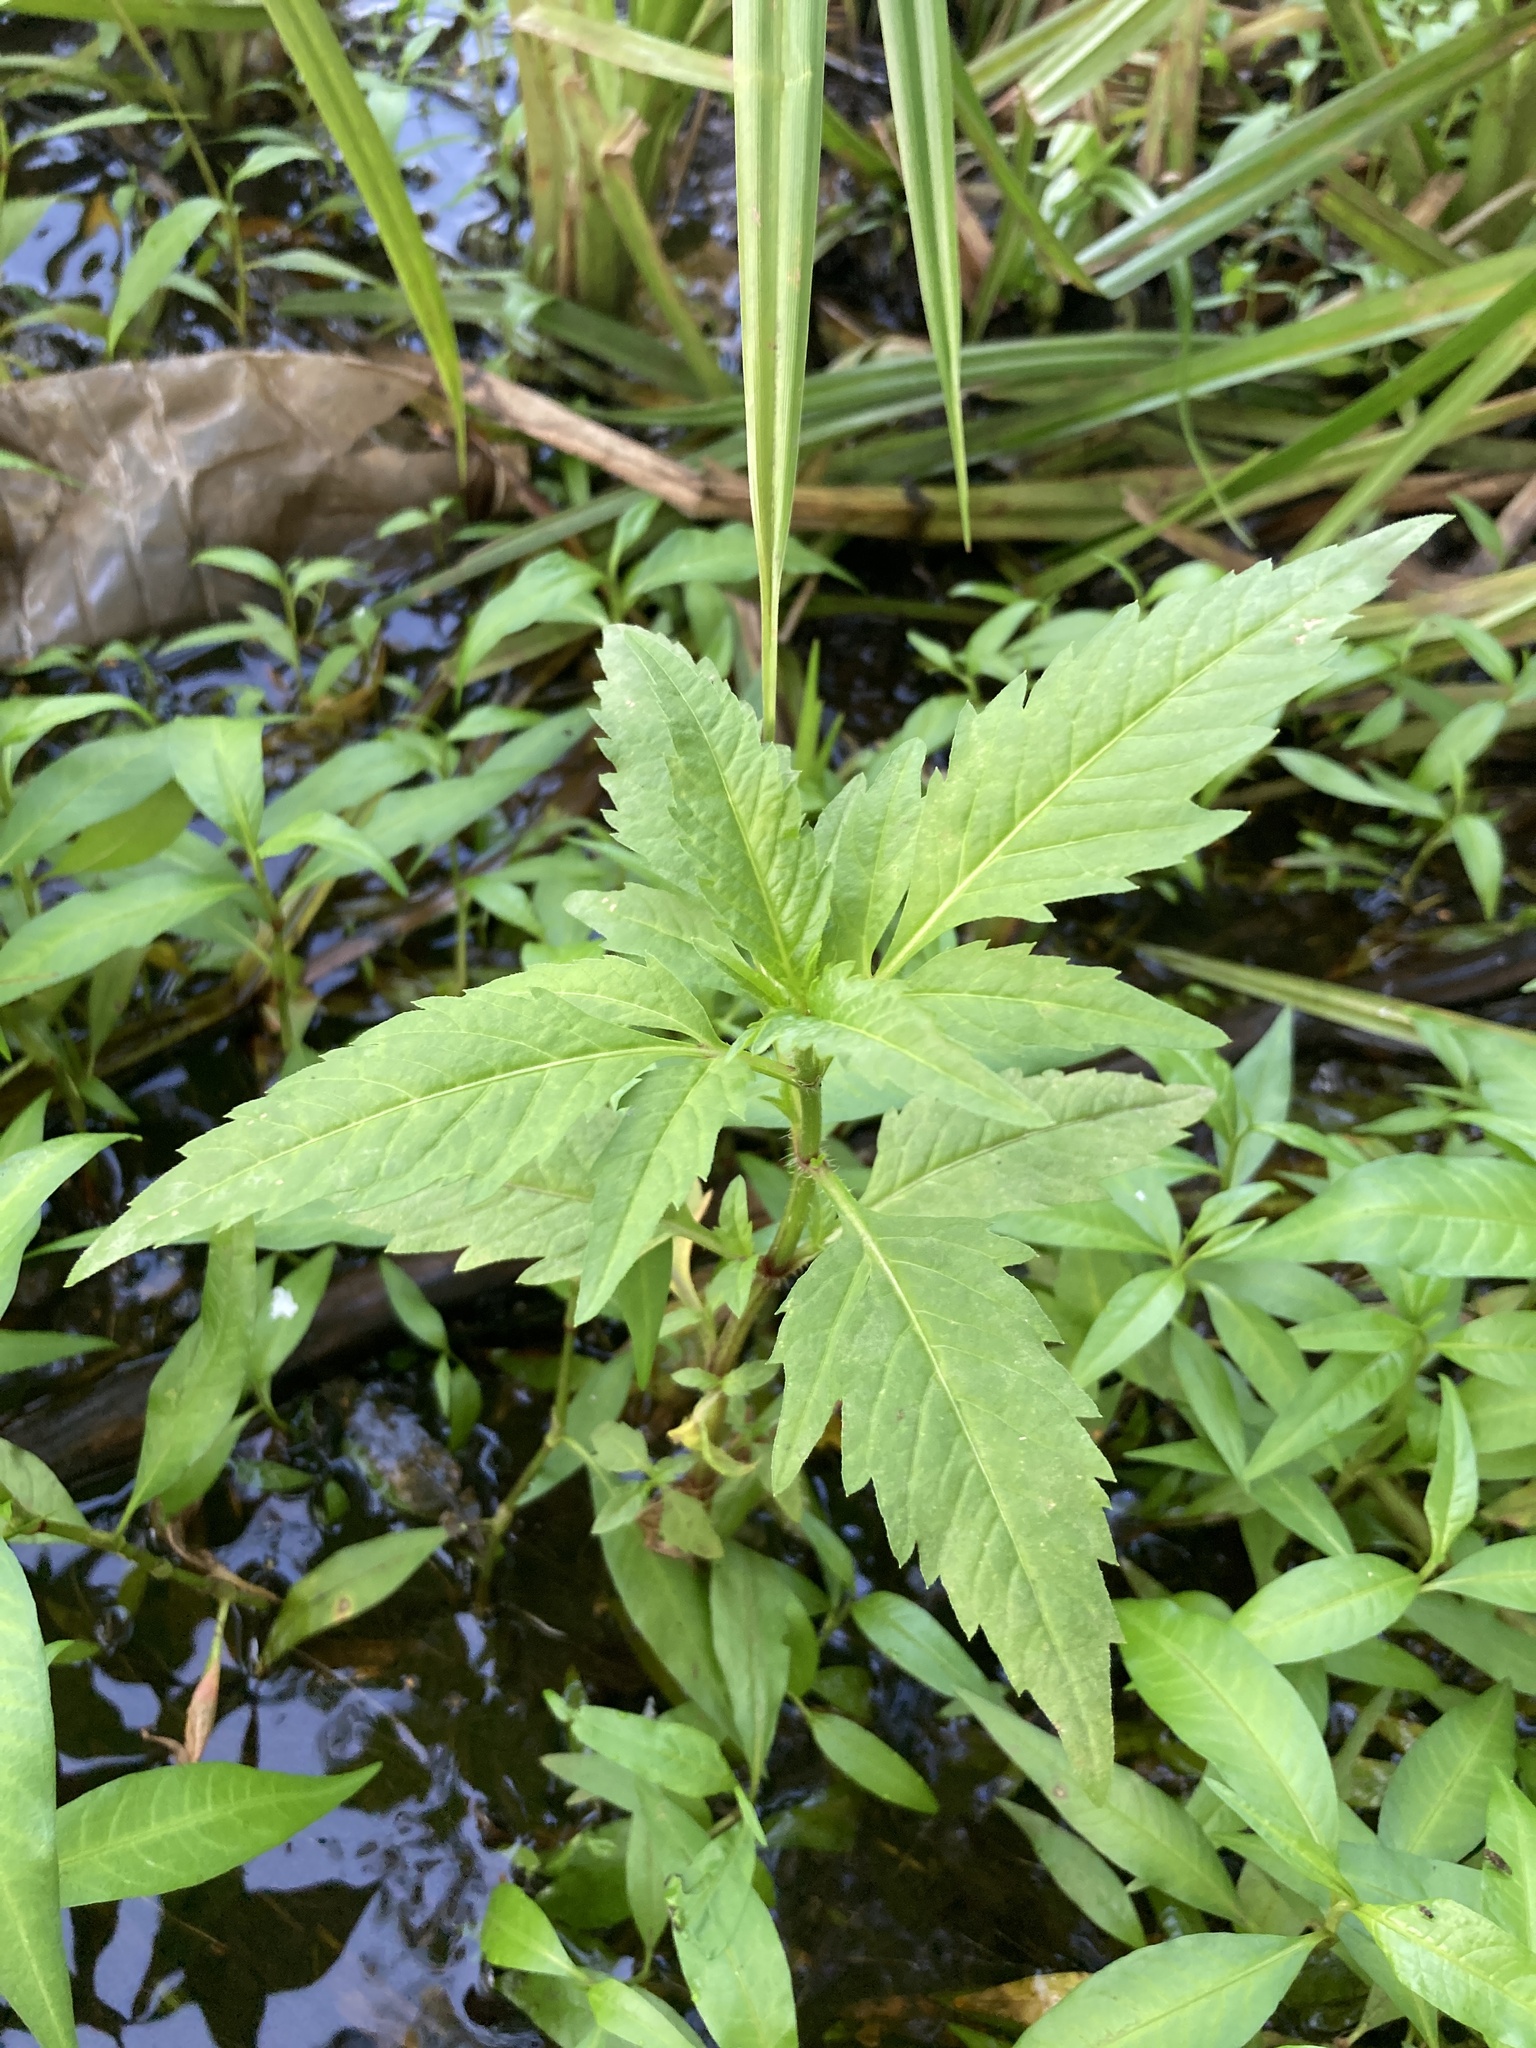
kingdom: Plantae
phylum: Tracheophyta
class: Magnoliopsida
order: Asterales
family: Asteraceae
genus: Bidens
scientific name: Bidens tripartita
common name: Trifid bur-marigold
